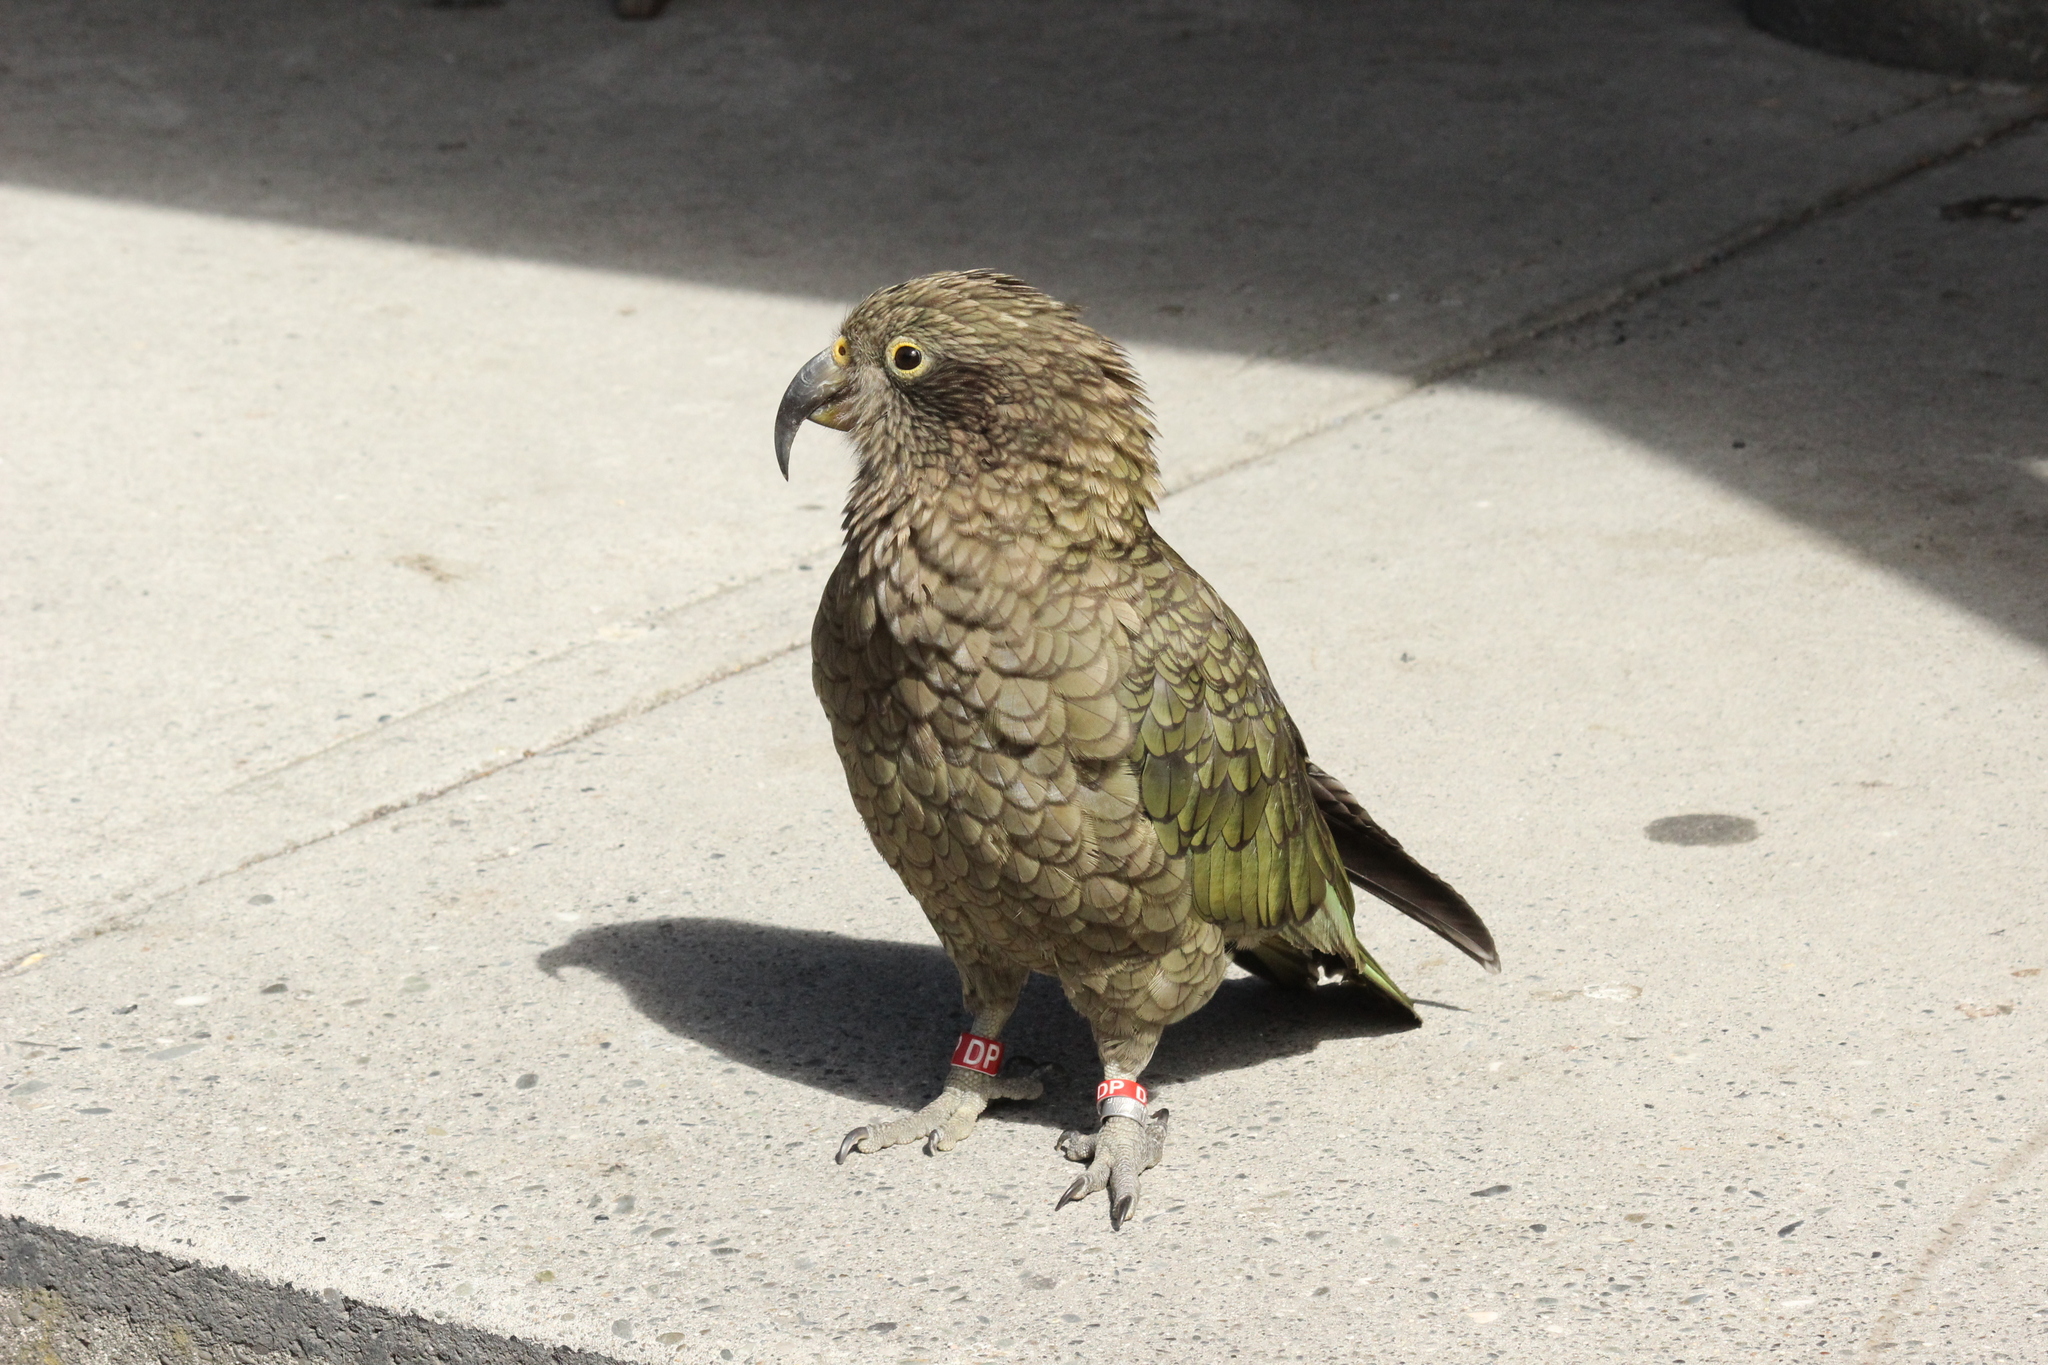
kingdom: Animalia
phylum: Chordata
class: Aves
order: Psittaciformes
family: Psittacidae
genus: Nestor
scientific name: Nestor notabilis
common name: Kea
